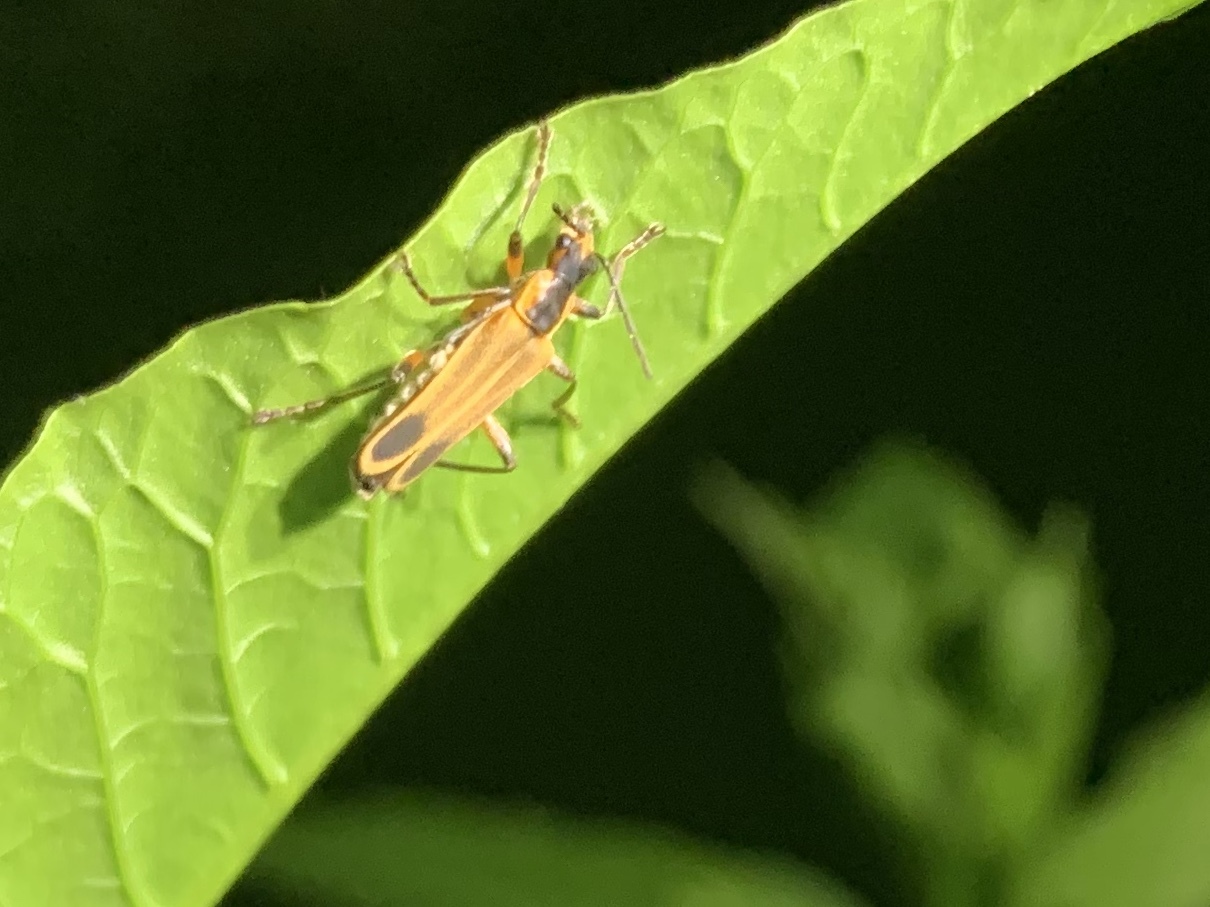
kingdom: Animalia
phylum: Arthropoda
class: Insecta
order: Coleoptera
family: Cantharidae
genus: Chauliognathus
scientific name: Chauliognathus marginatus
